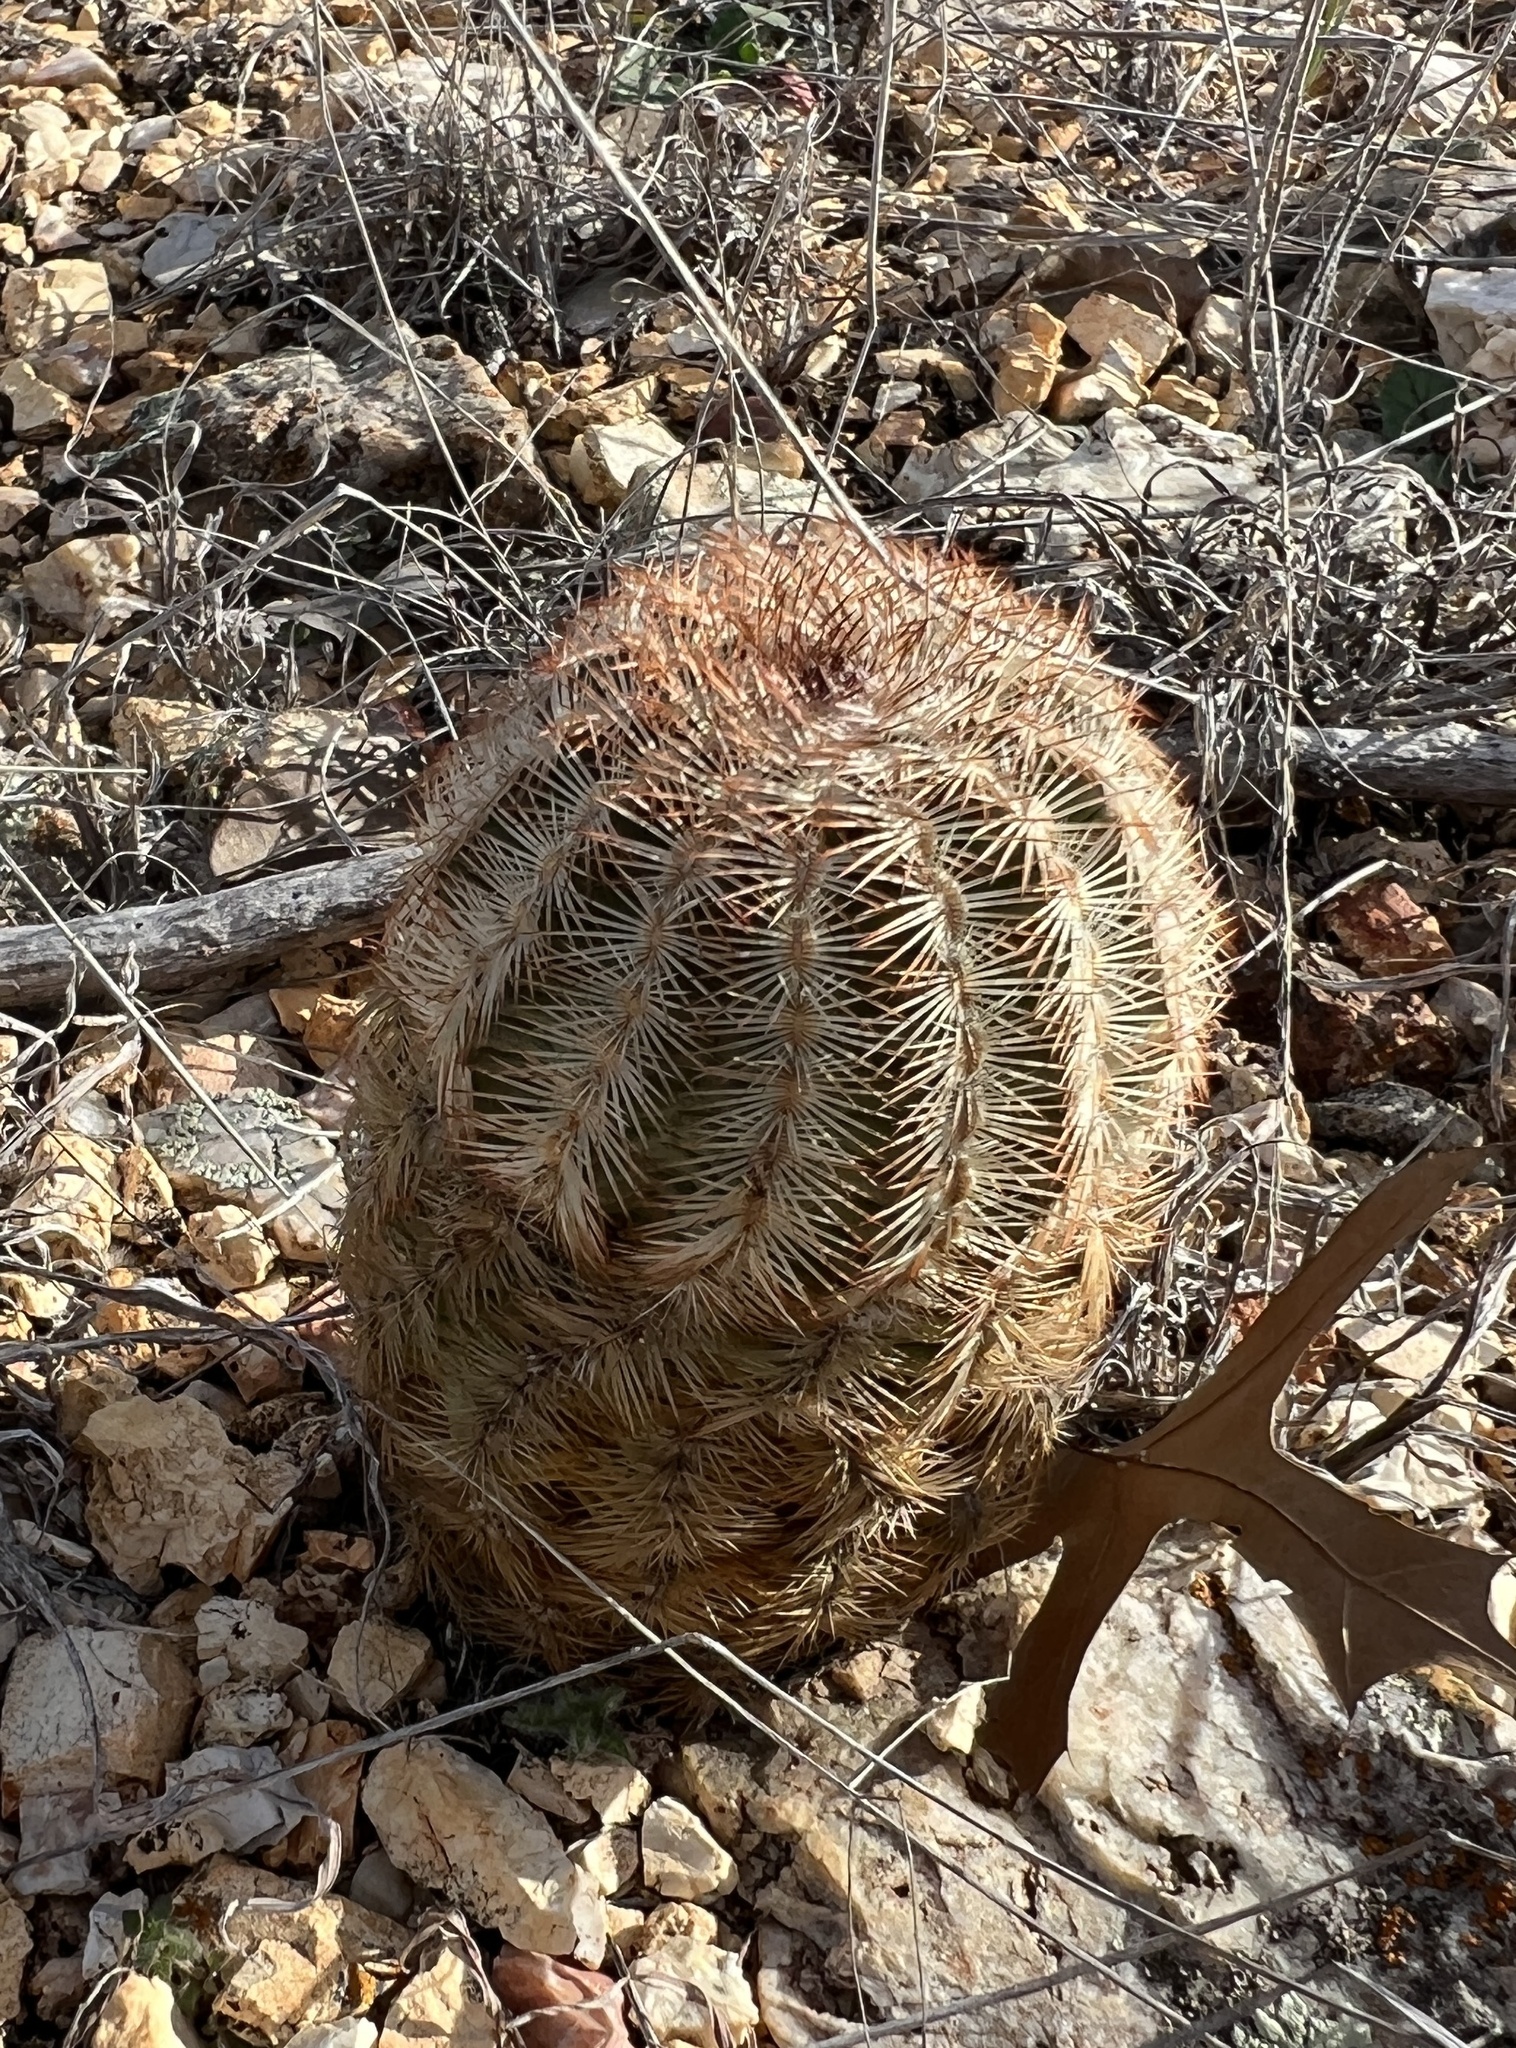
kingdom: Plantae
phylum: Tracheophyta
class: Magnoliopsida
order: Caryophyllales
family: Cactaceae
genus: Echinocereus
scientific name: Echinocereus reichenbachii
